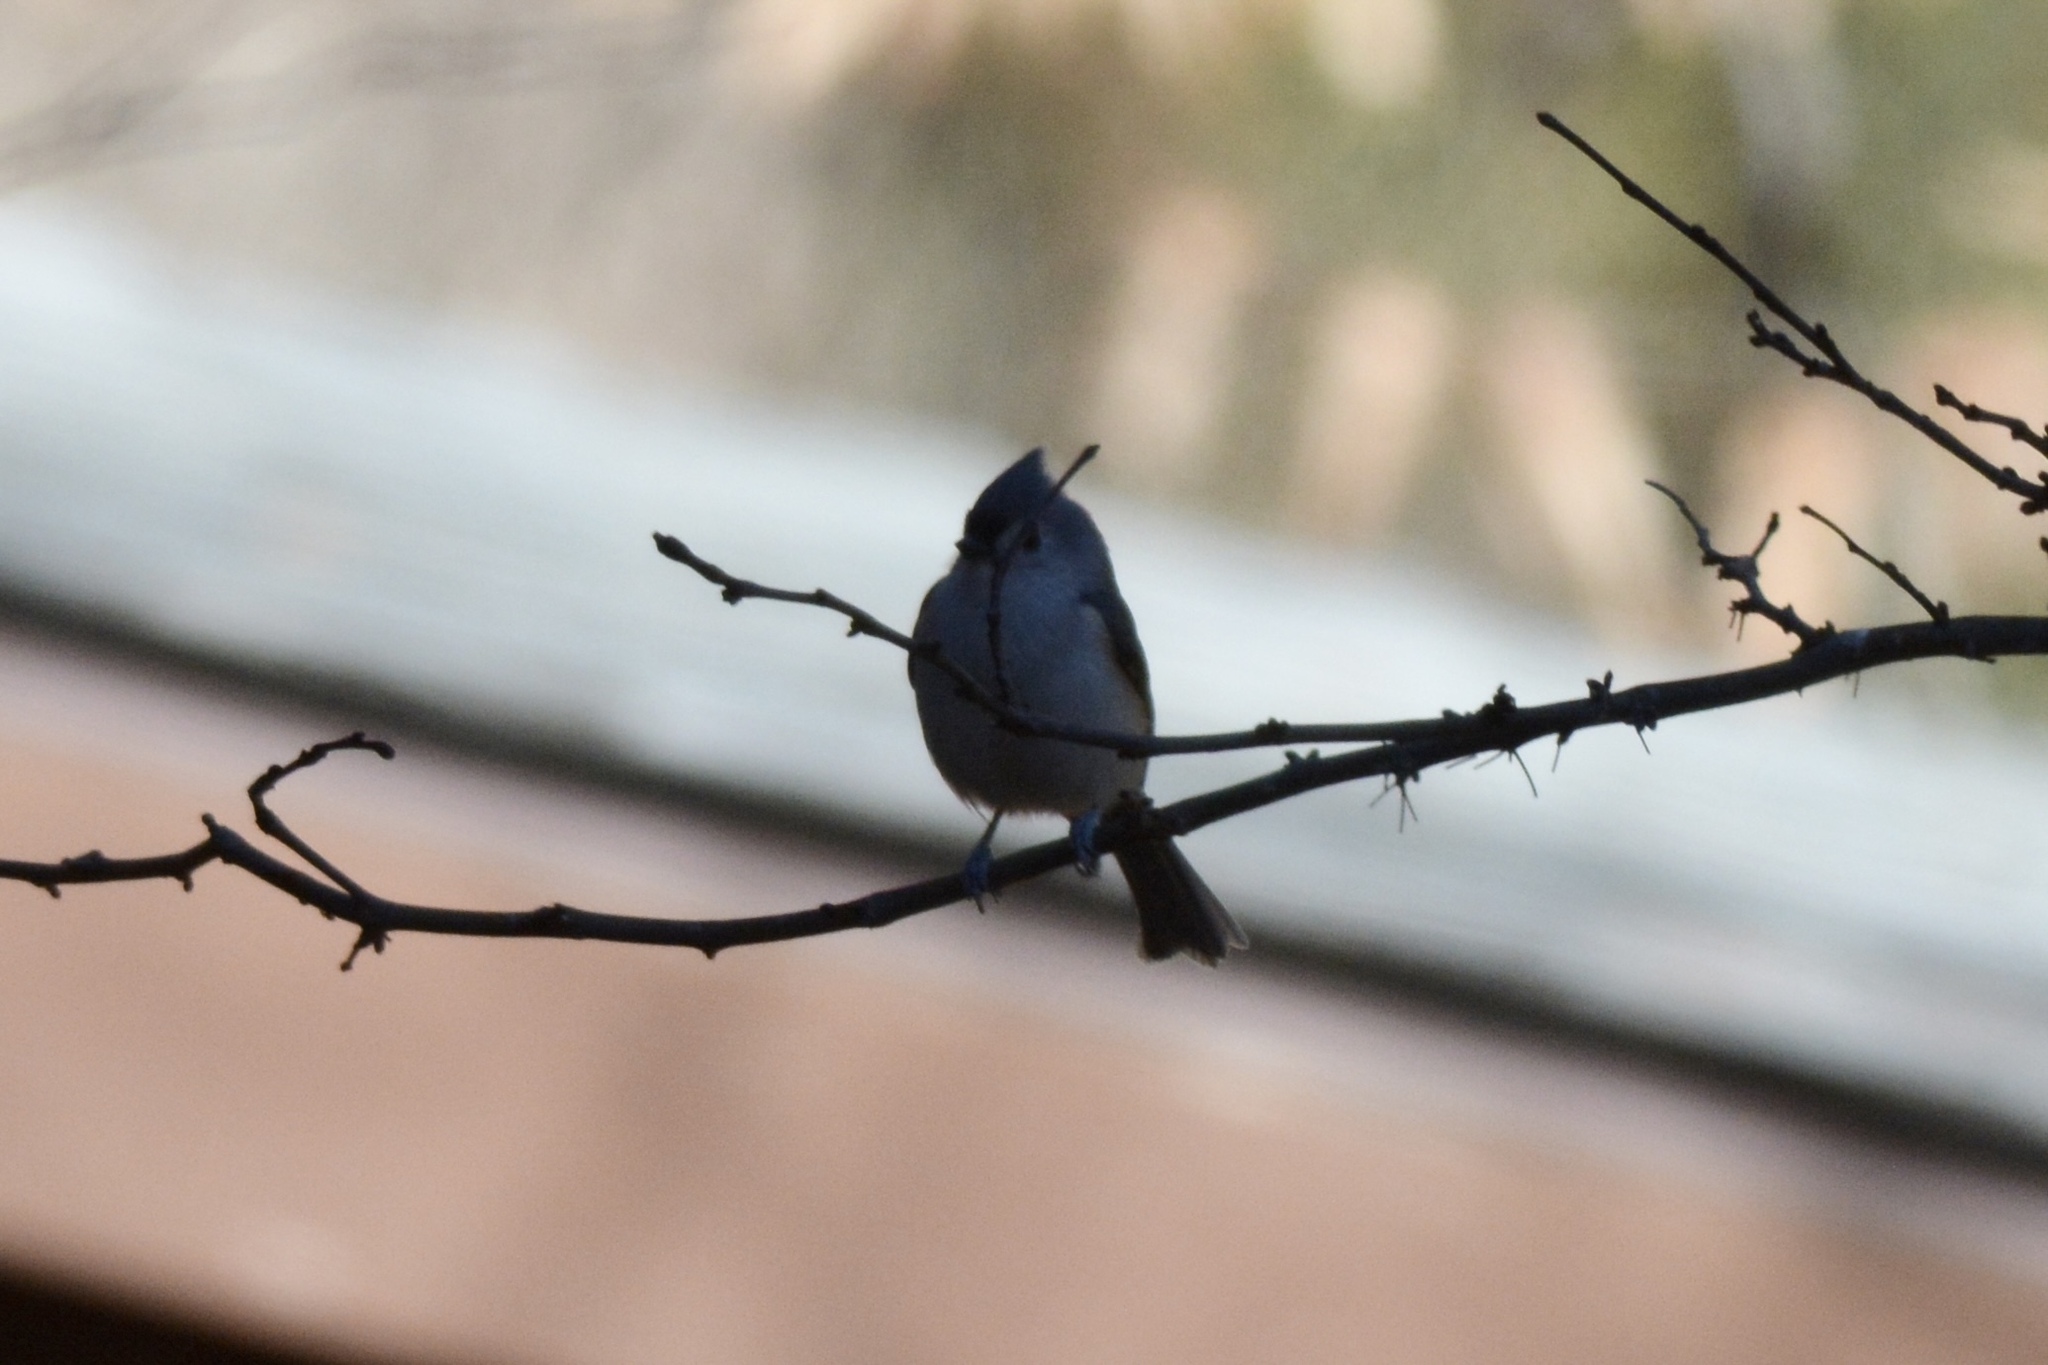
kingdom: Animalia
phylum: Chordata
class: Aves
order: Passeriformes
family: Paridae
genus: Baeolophus
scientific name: Baeolophus bicolor
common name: Tufted titmouse
